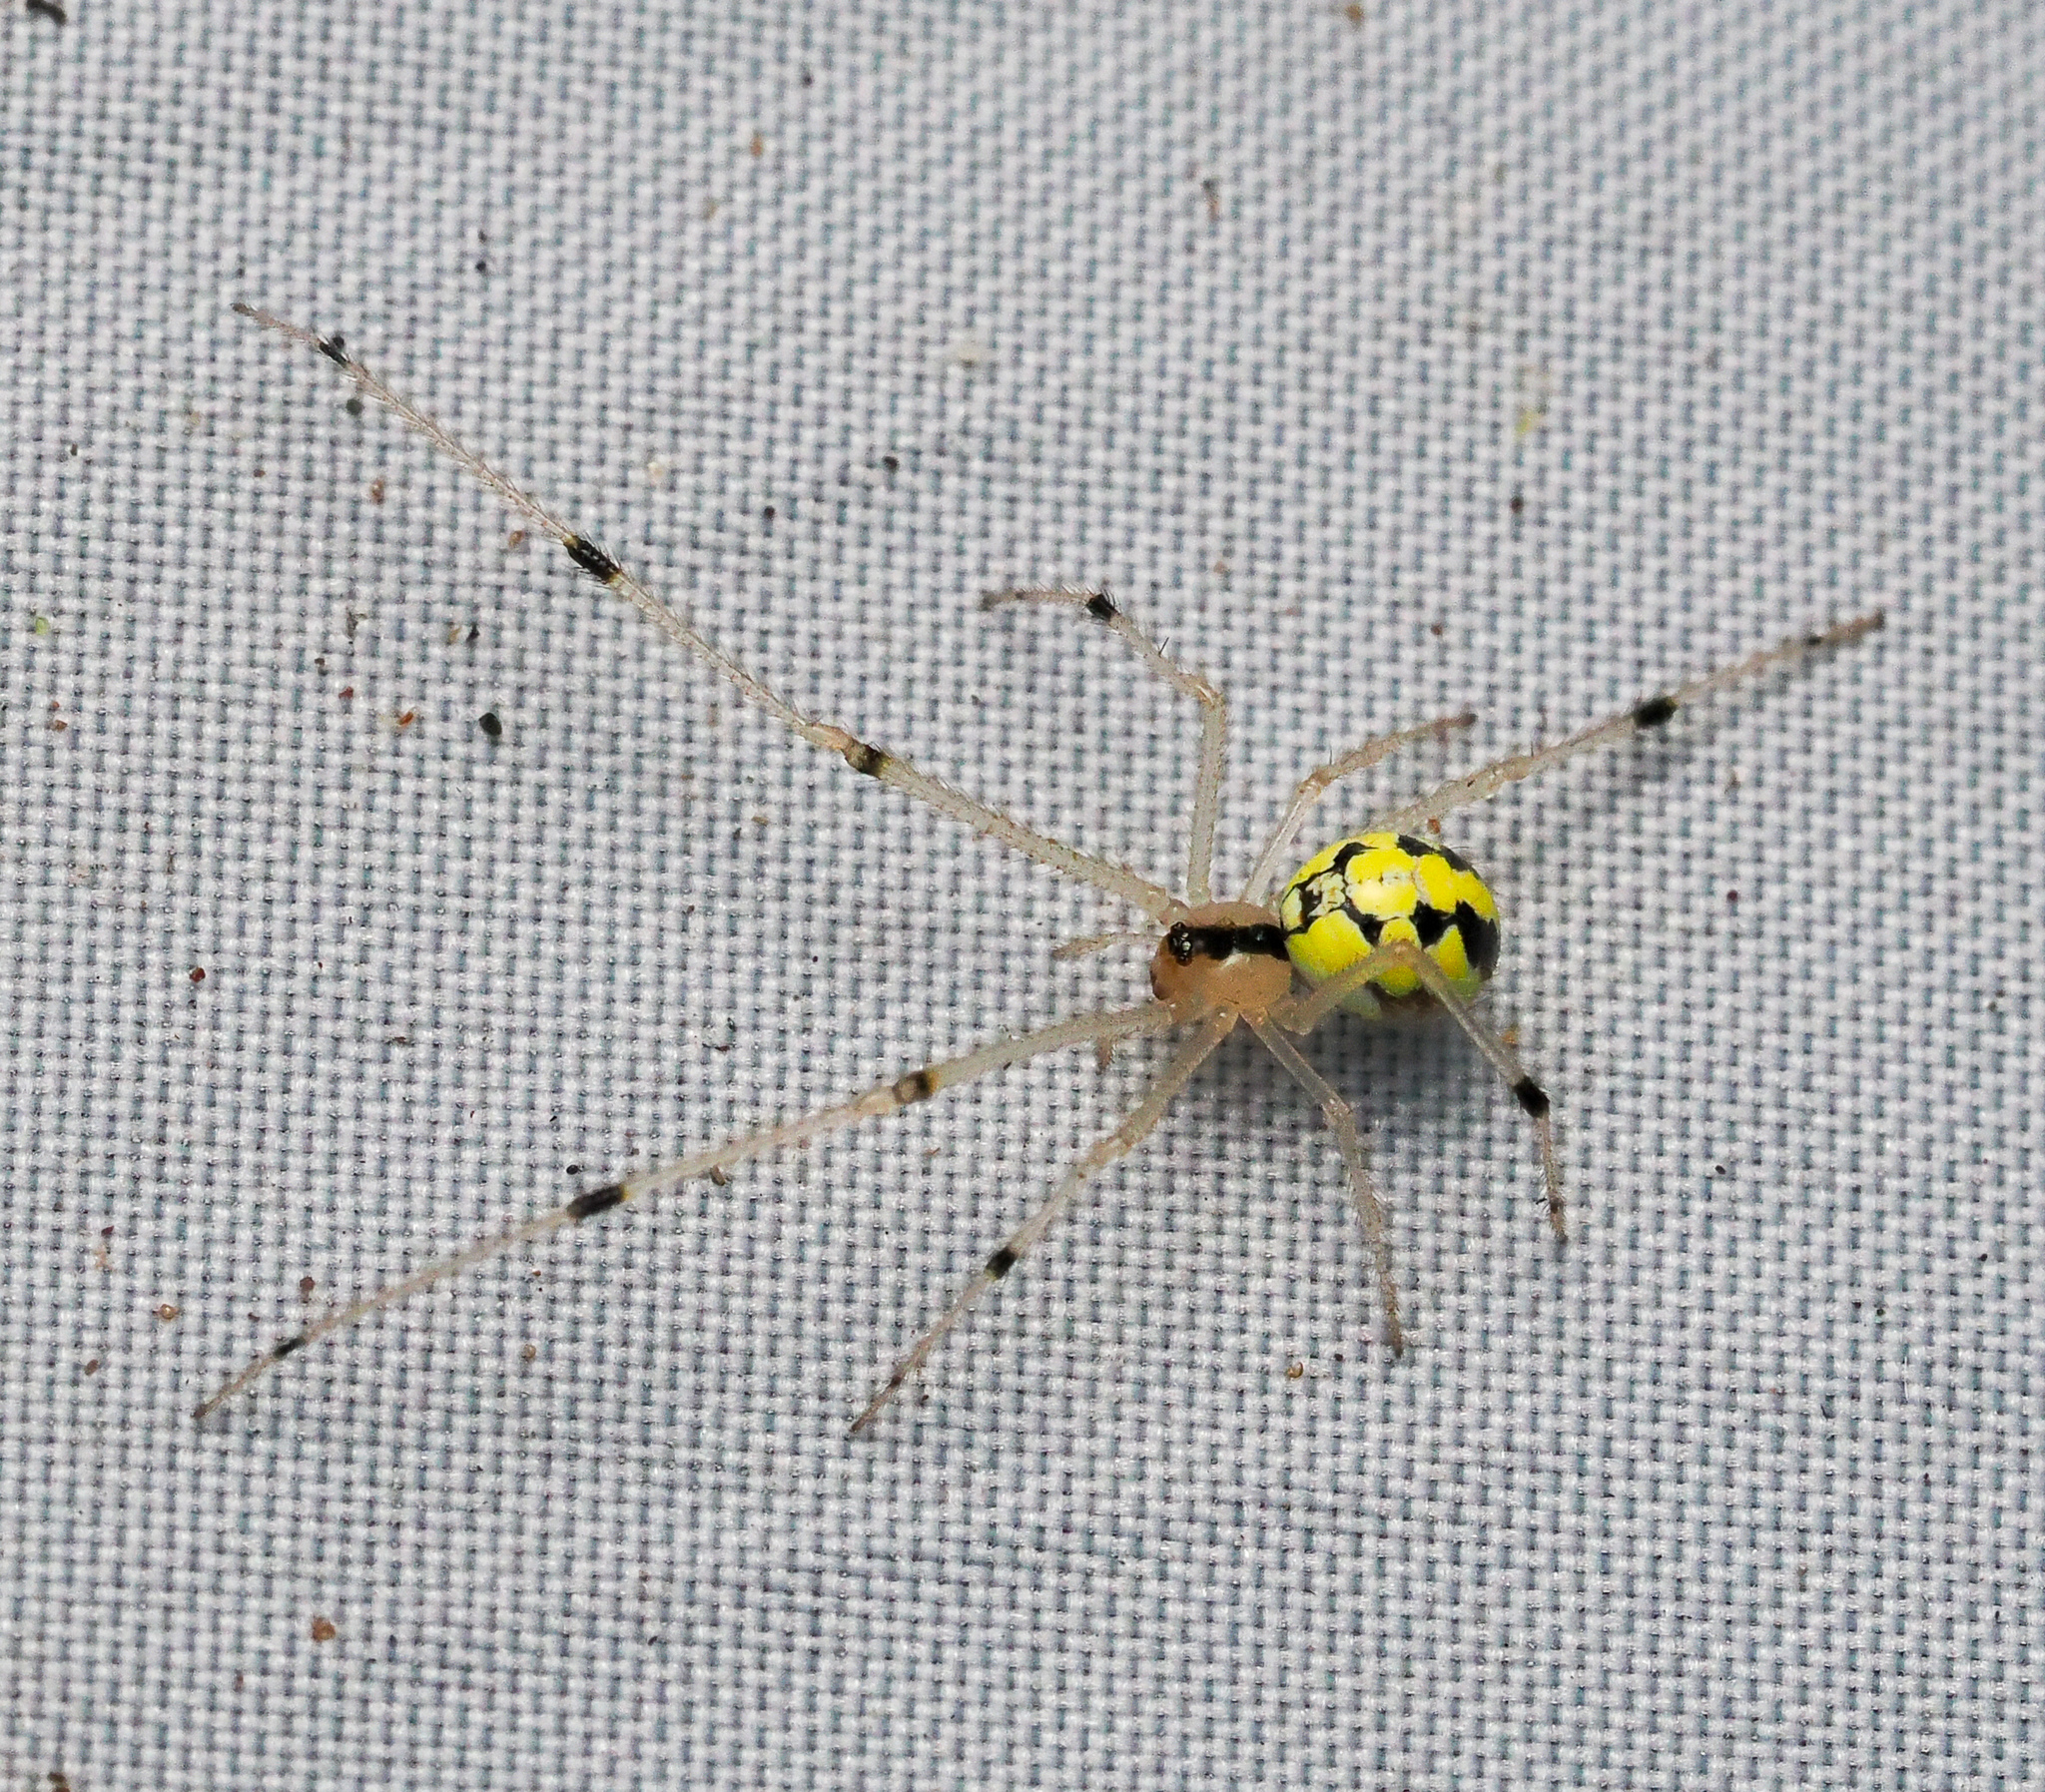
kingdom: Animalia
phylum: Arthropoda
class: Arachnida
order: Araneae
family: Theridiidae
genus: Phylloneta
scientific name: Phylloneta pictipes
